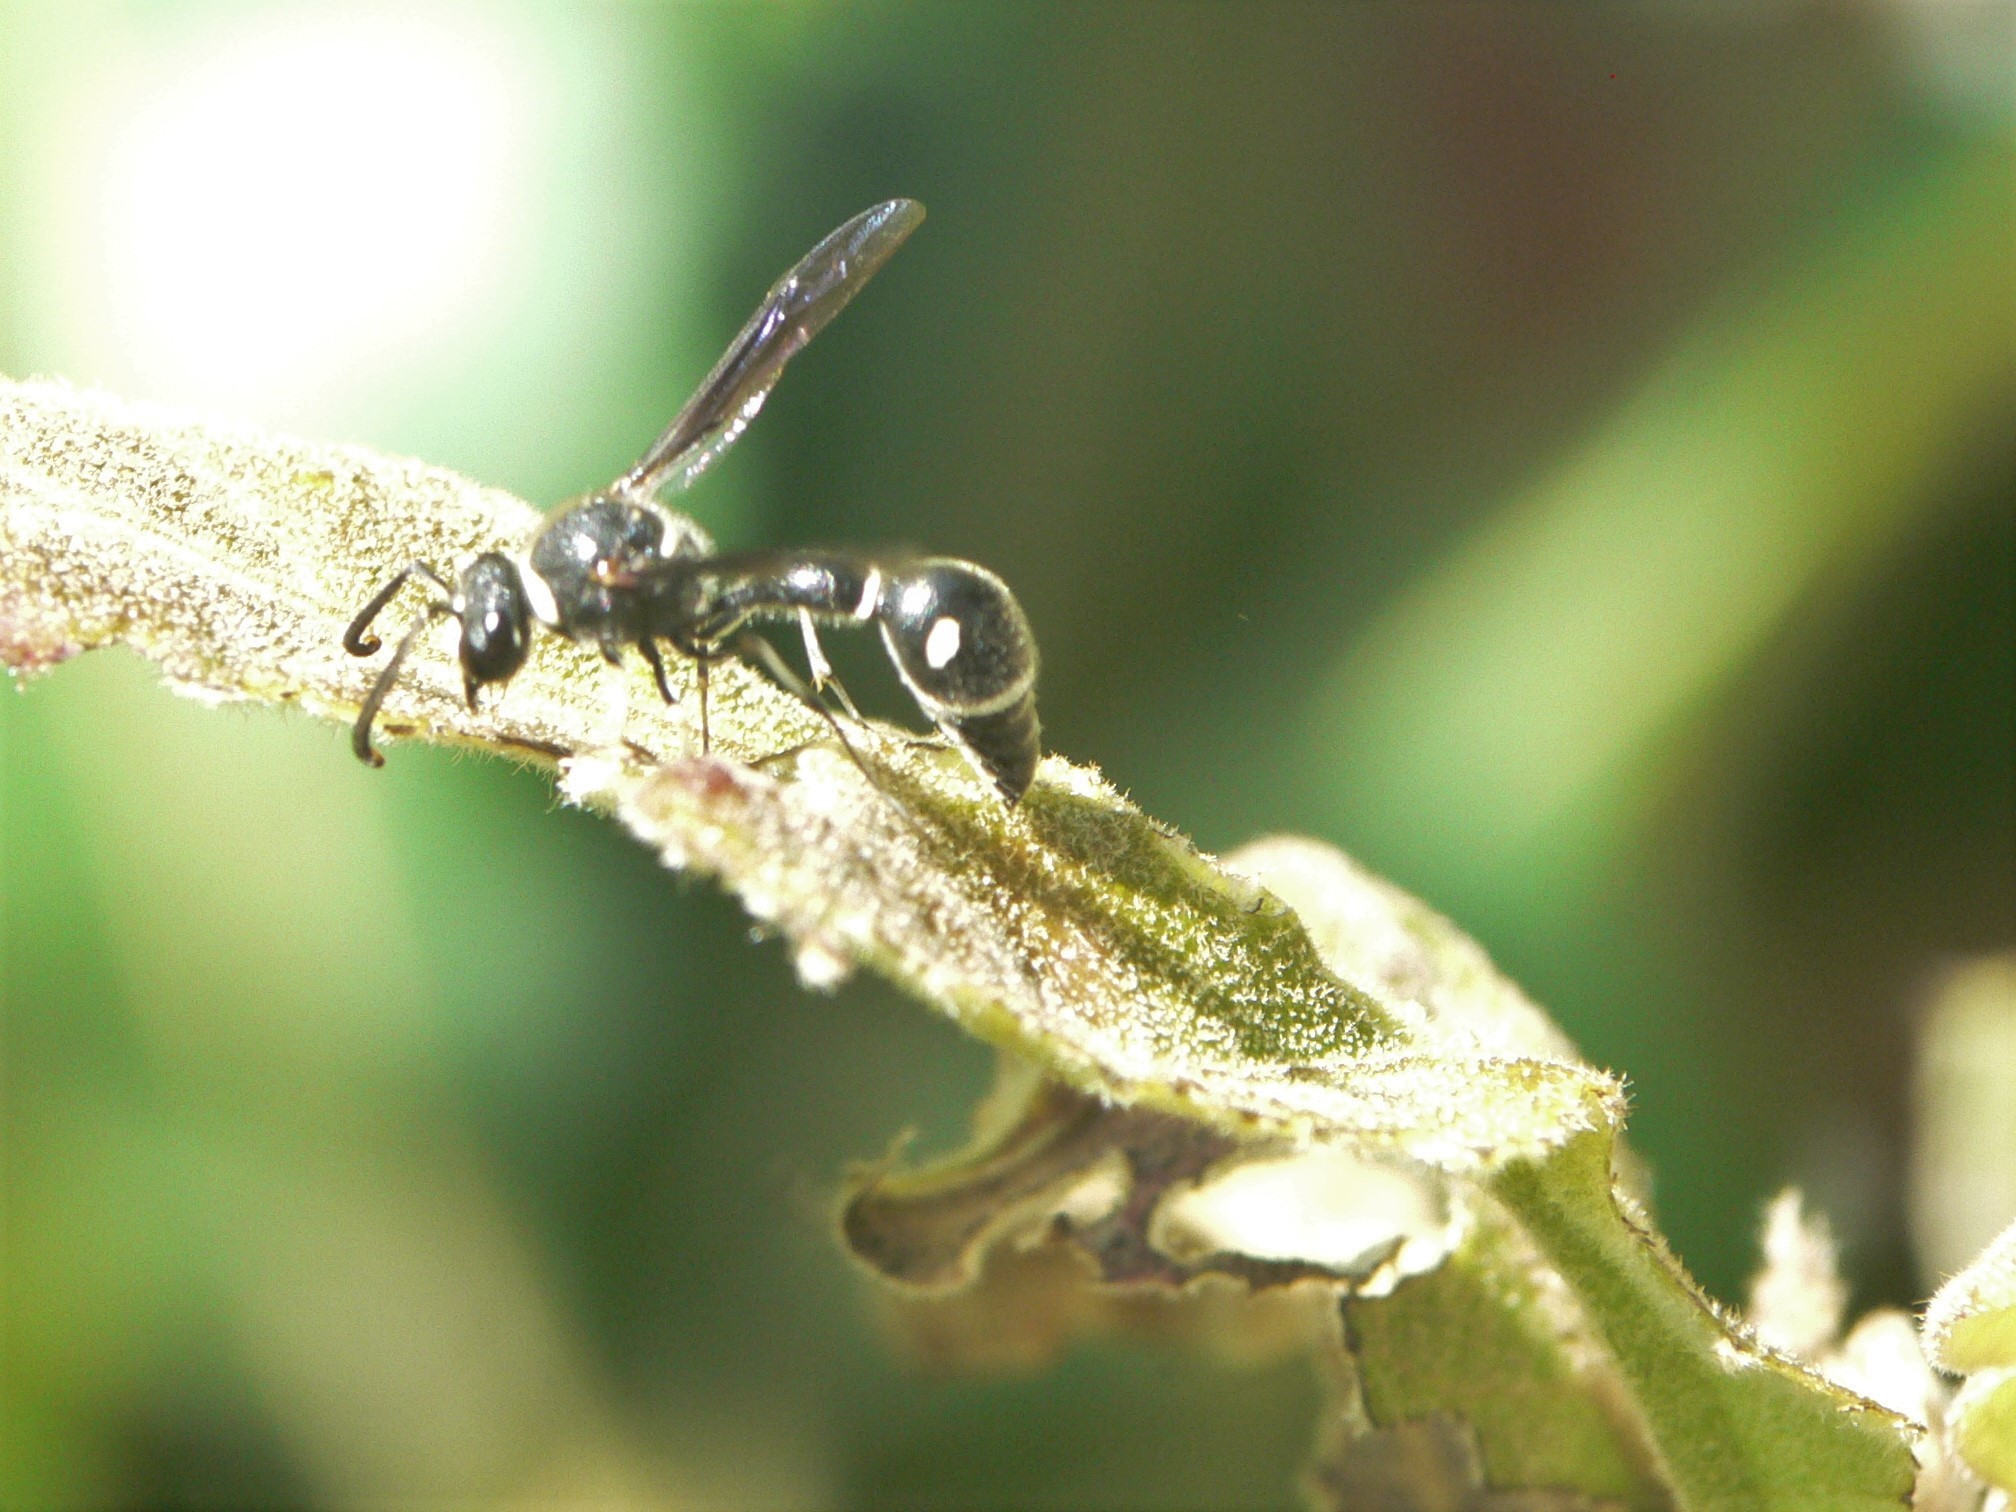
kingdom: Animalia
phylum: Arthropoda
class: Insecta
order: Hymenoptera
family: Vespidae
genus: Eumenes
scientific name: Eumenes fraternus
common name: Fraternal potter wasp
